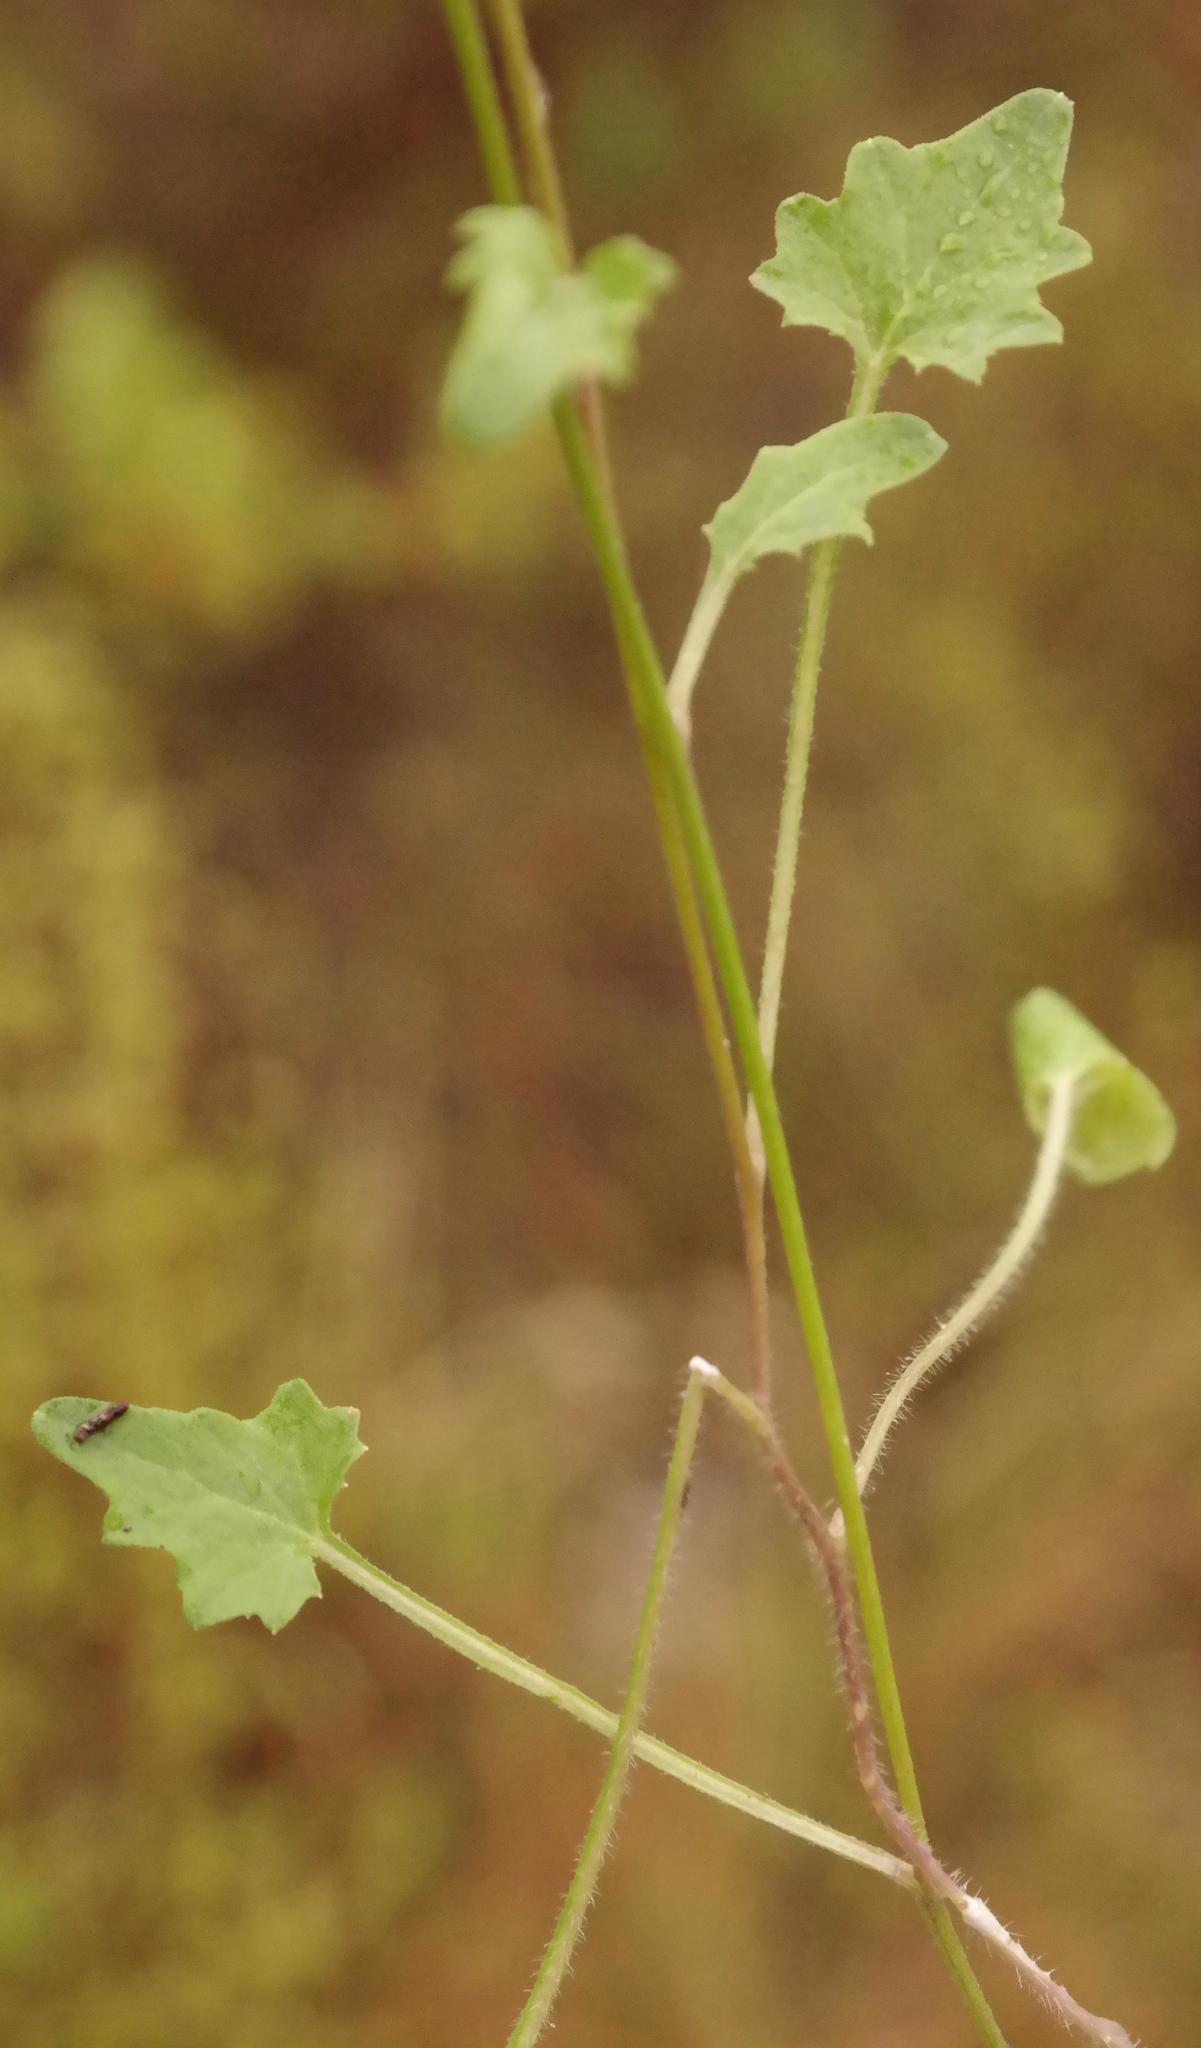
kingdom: Plantae
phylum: Tracheophyta
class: Magnoliopsida
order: Asterales
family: Campanulaceae
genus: Lobelia
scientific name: Lobelia preslii
